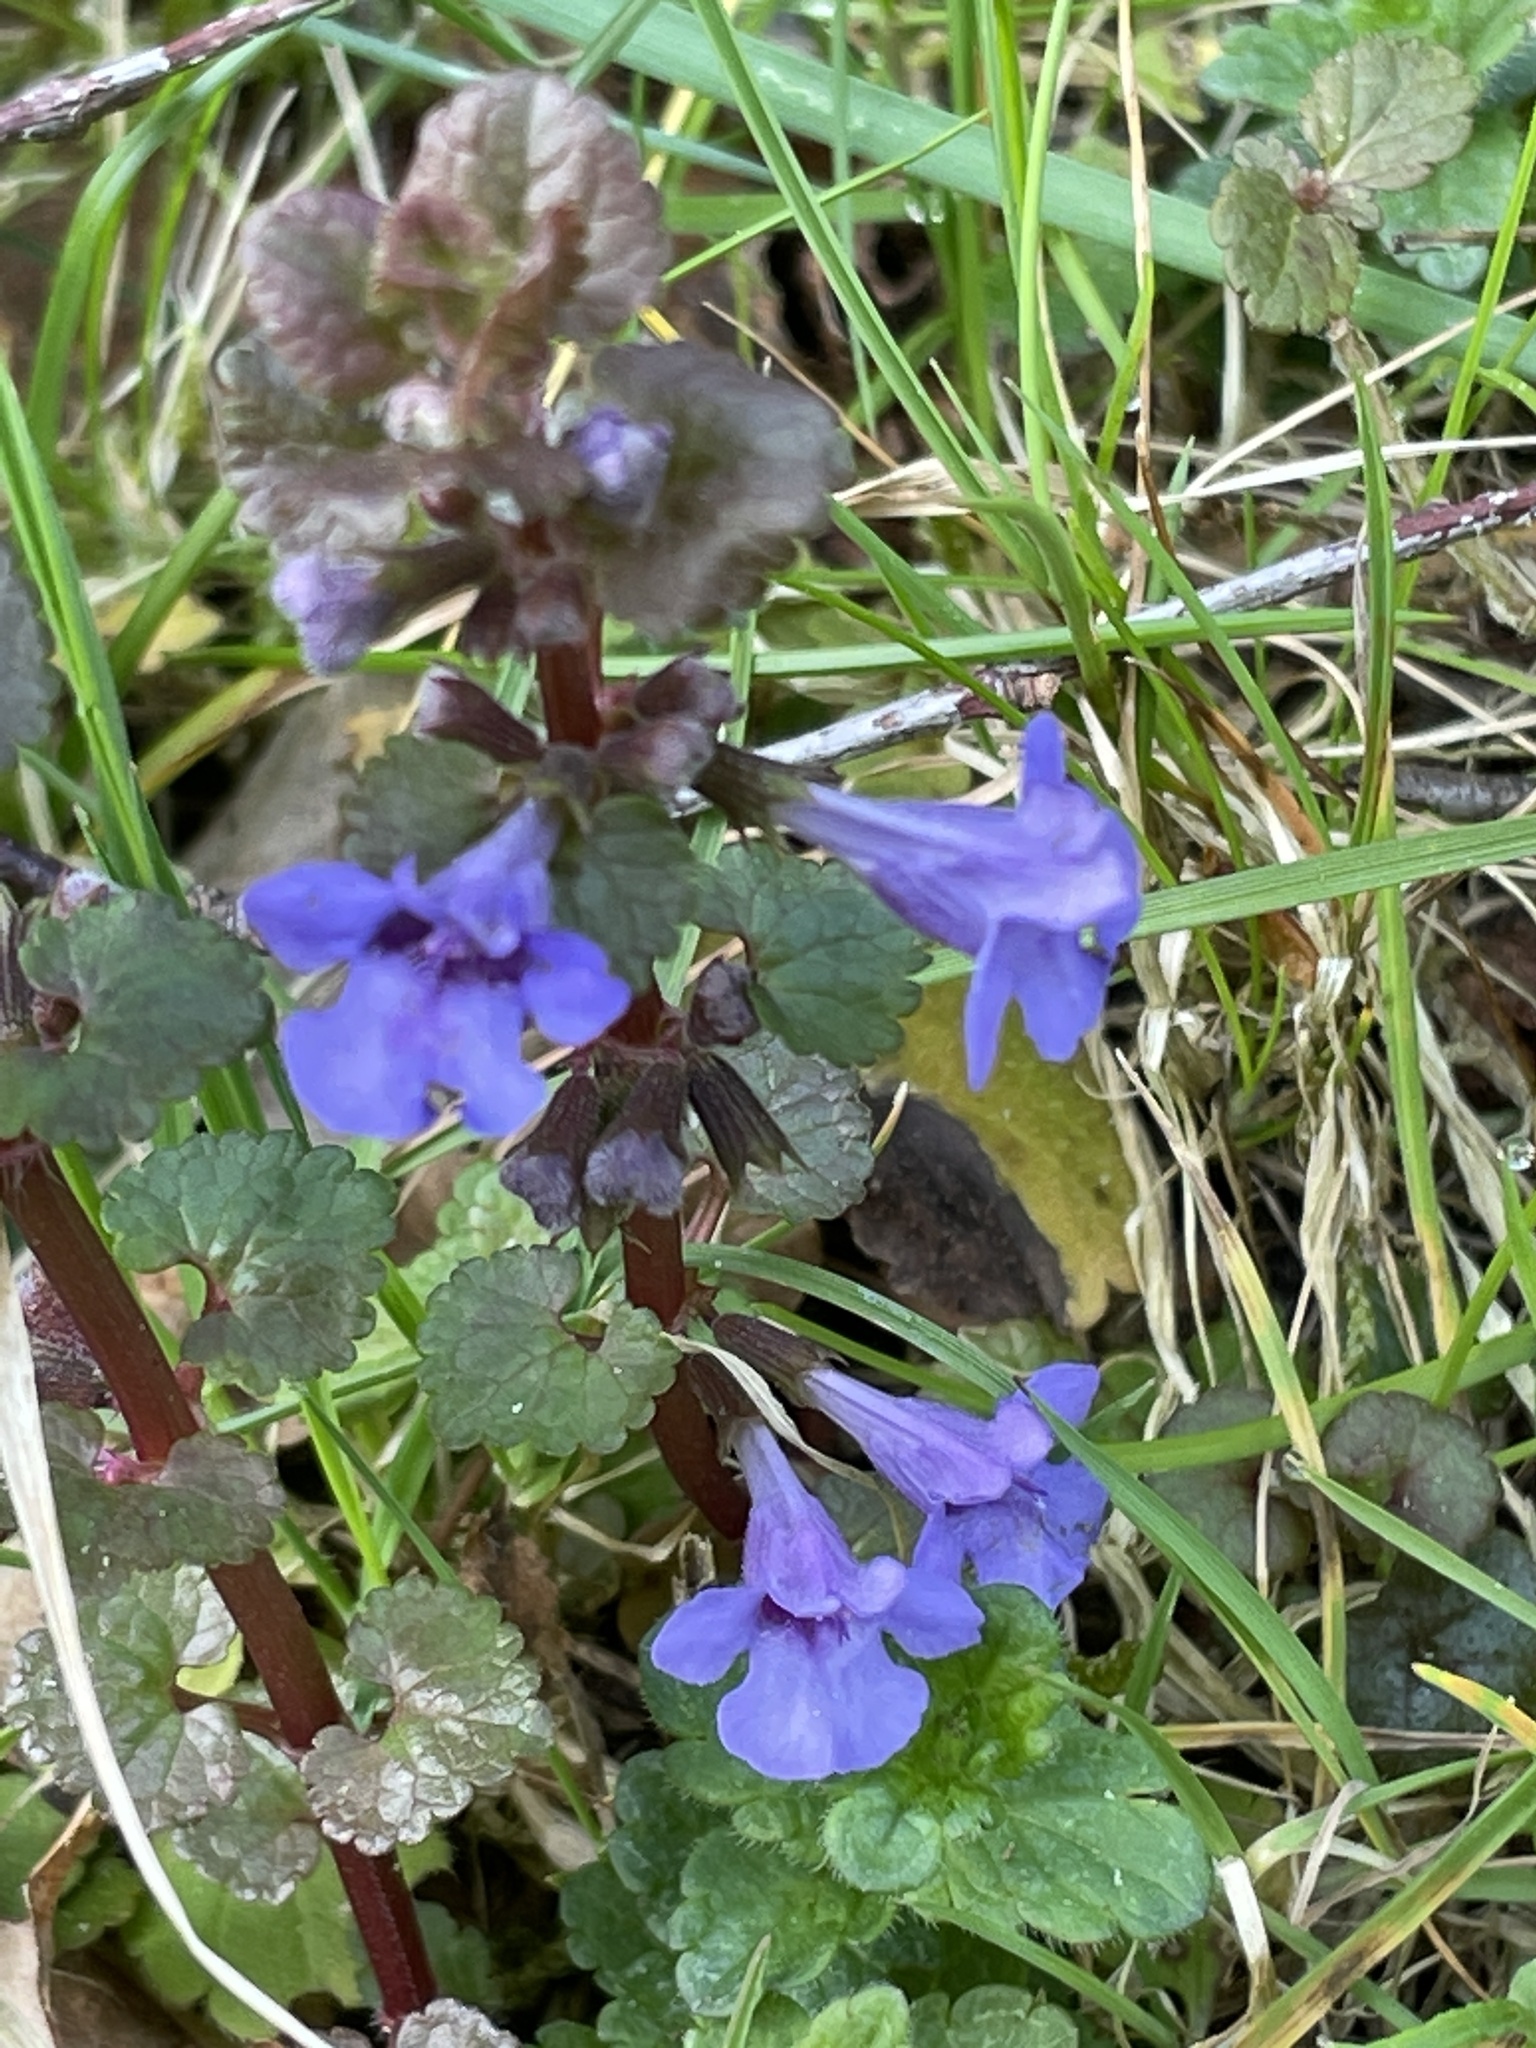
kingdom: Plantae
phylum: Tracheophyta
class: Magnoliopsida
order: Lamiales
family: Lamiaceae
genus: Glechoma
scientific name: Glechoma hederacea
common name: Ground ivy
